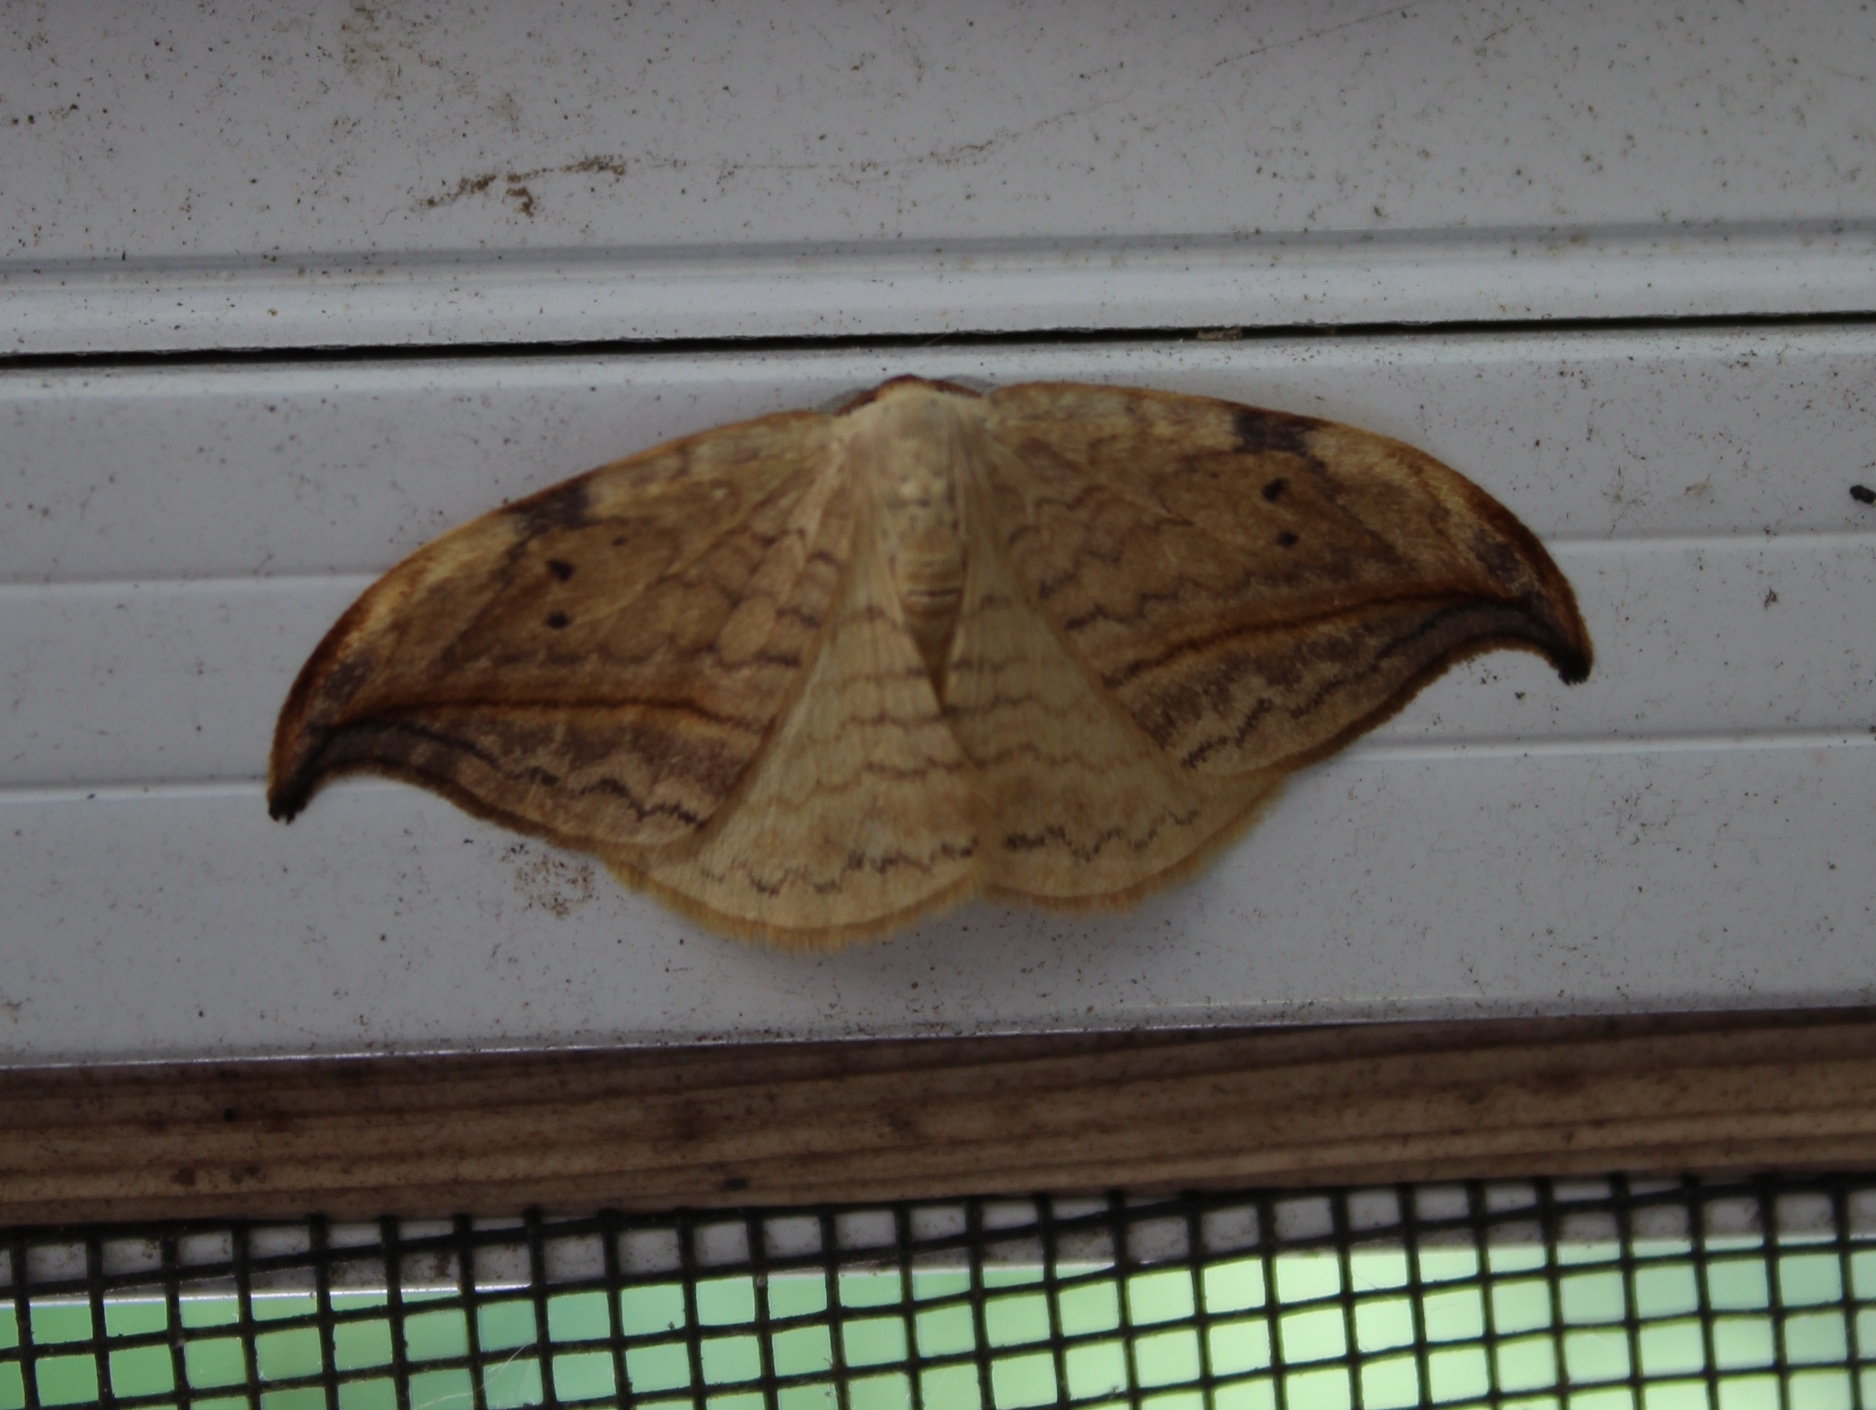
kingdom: Animalia
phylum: Arthropoda
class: Insecta
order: Lepidoptera
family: Drepanidae
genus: Drepana
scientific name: Drepana arcuata
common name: Arched hooktip moth
